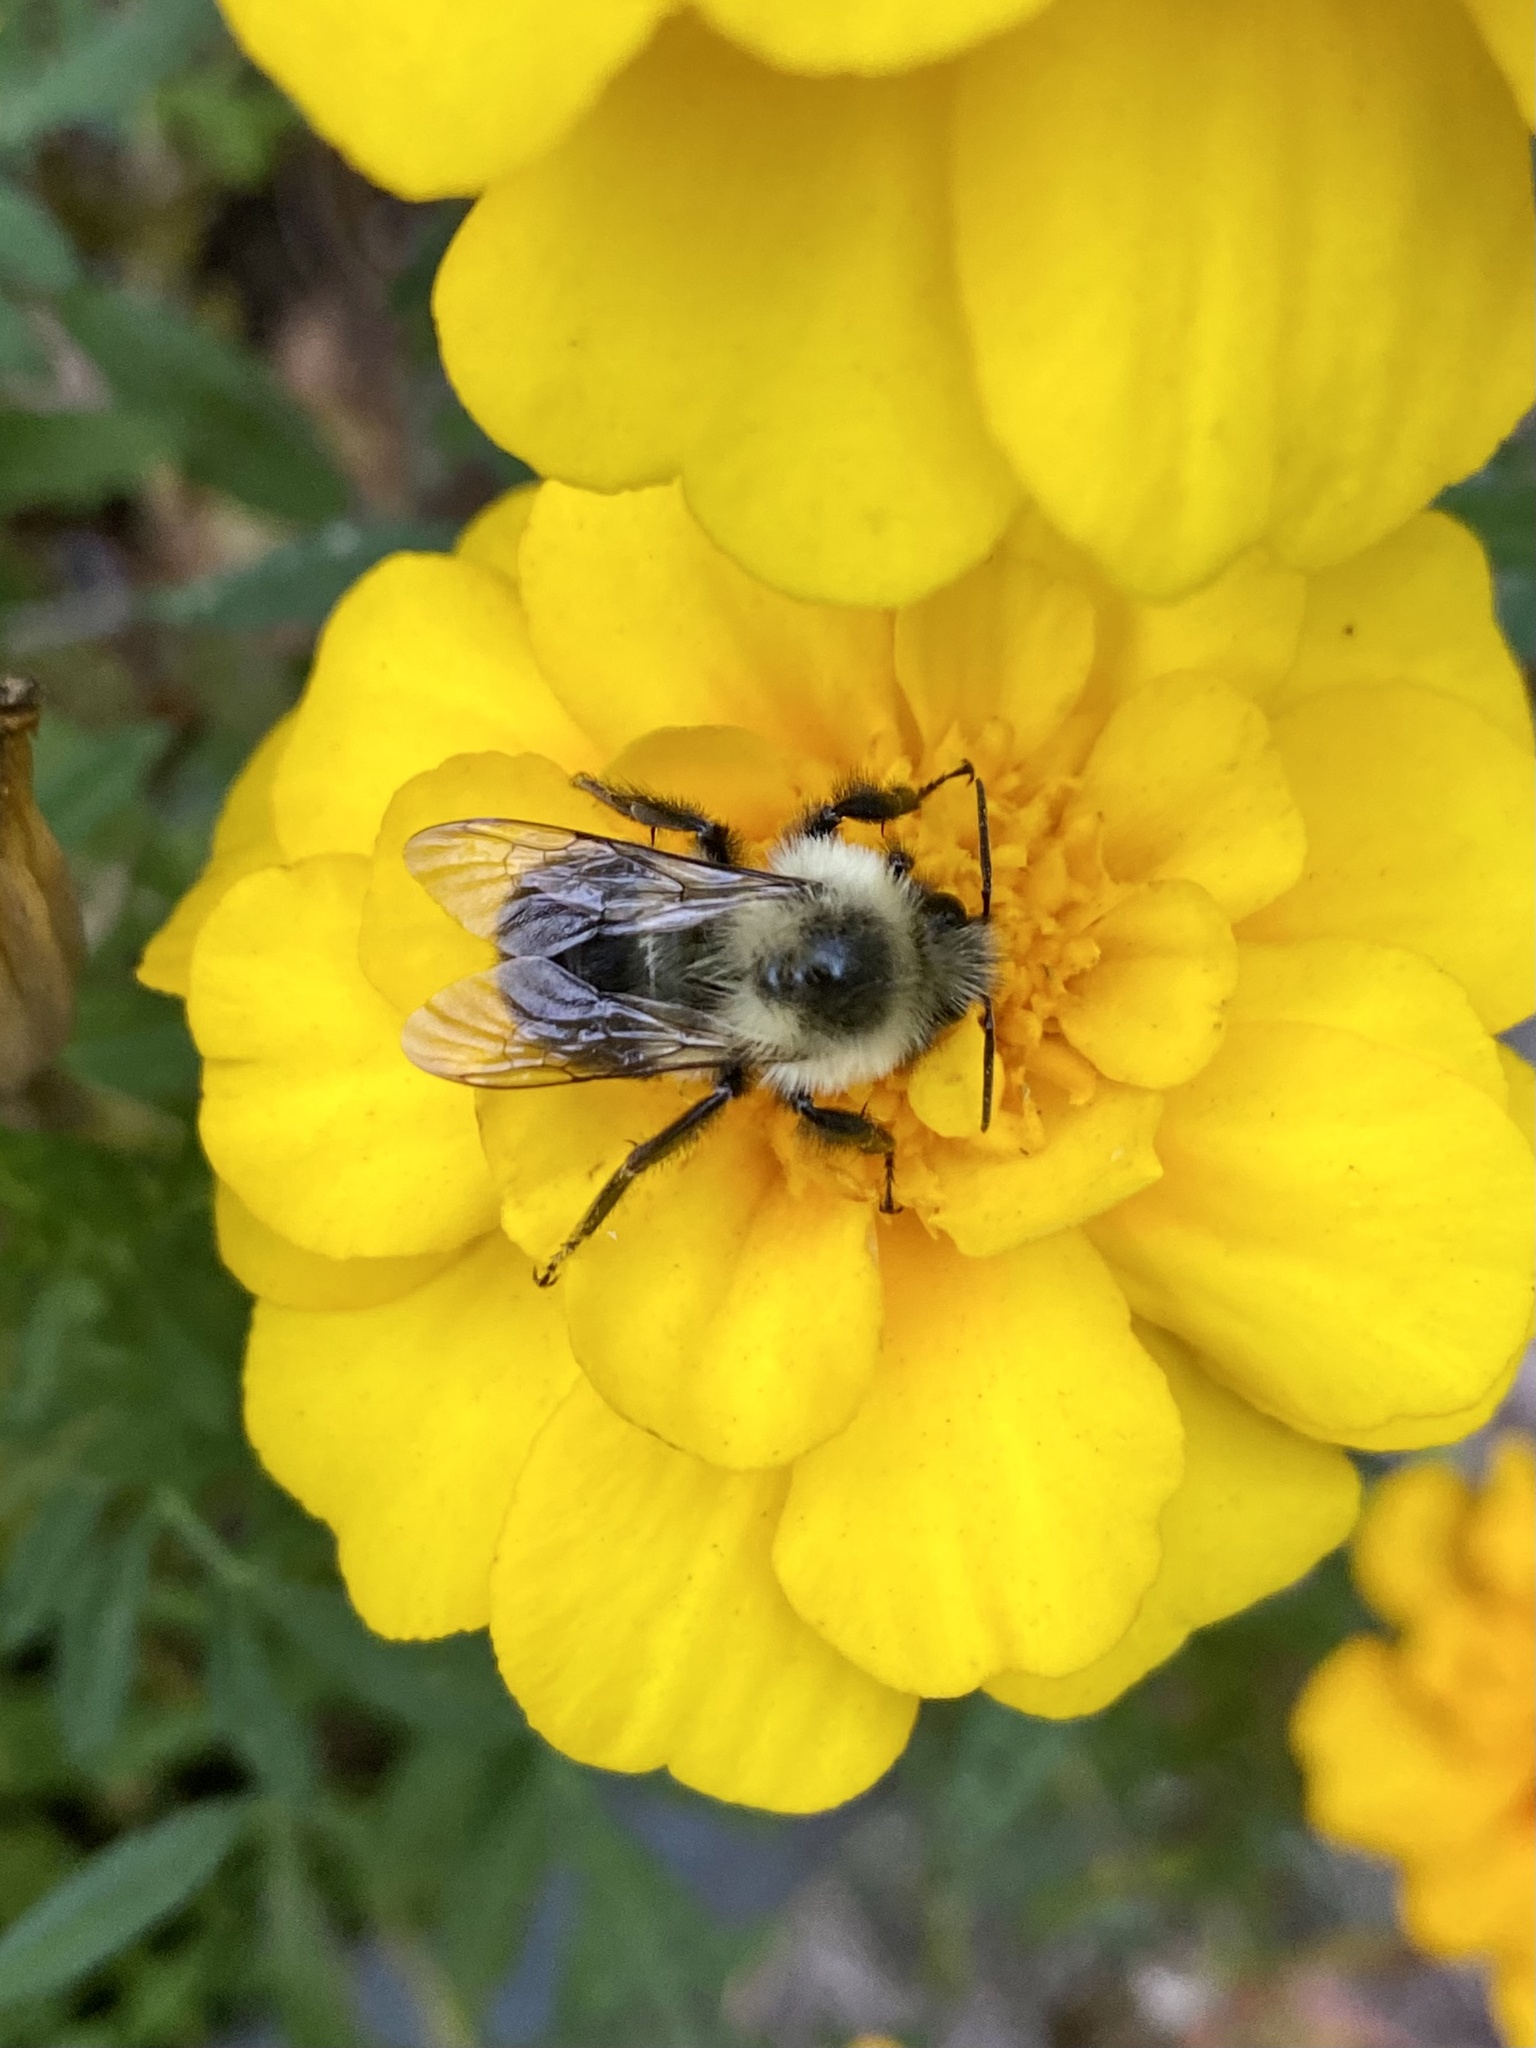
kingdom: Animalia
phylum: Arthropoda
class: Insecta
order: Hymenoptera
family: Apidae
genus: Bombus
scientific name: Bombus impatiens
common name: Common eastern bumble bee
